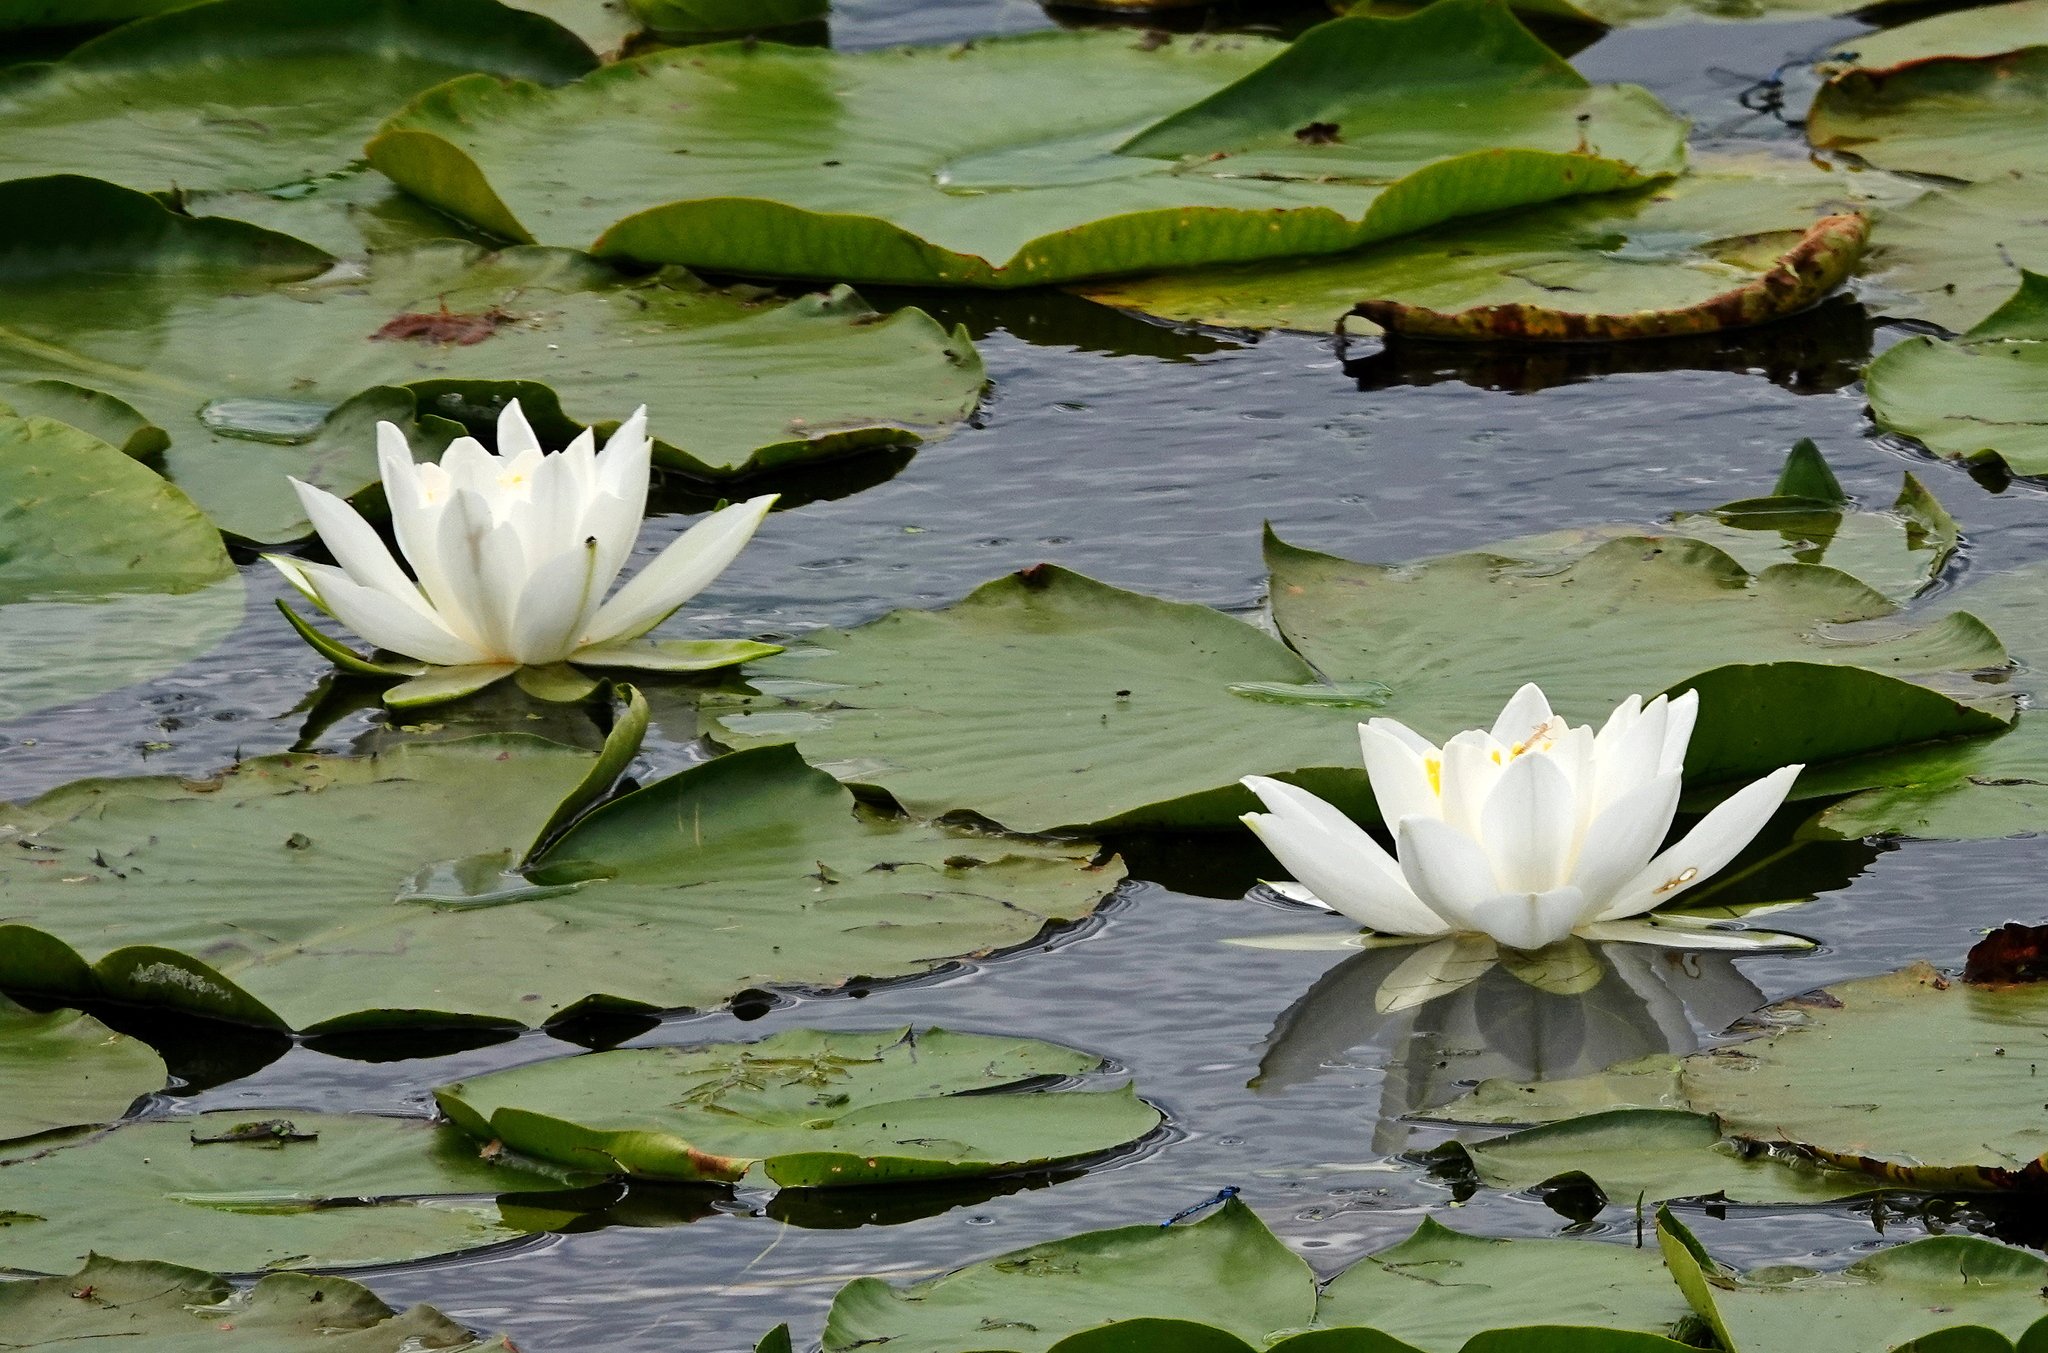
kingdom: Plantae
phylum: Tracheophyta
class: Magnoliopsida
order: Nymphaeales
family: Nymphaeaceae
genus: Nymphaea
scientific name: Nymphaea odorata
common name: Fragrant water-lily
